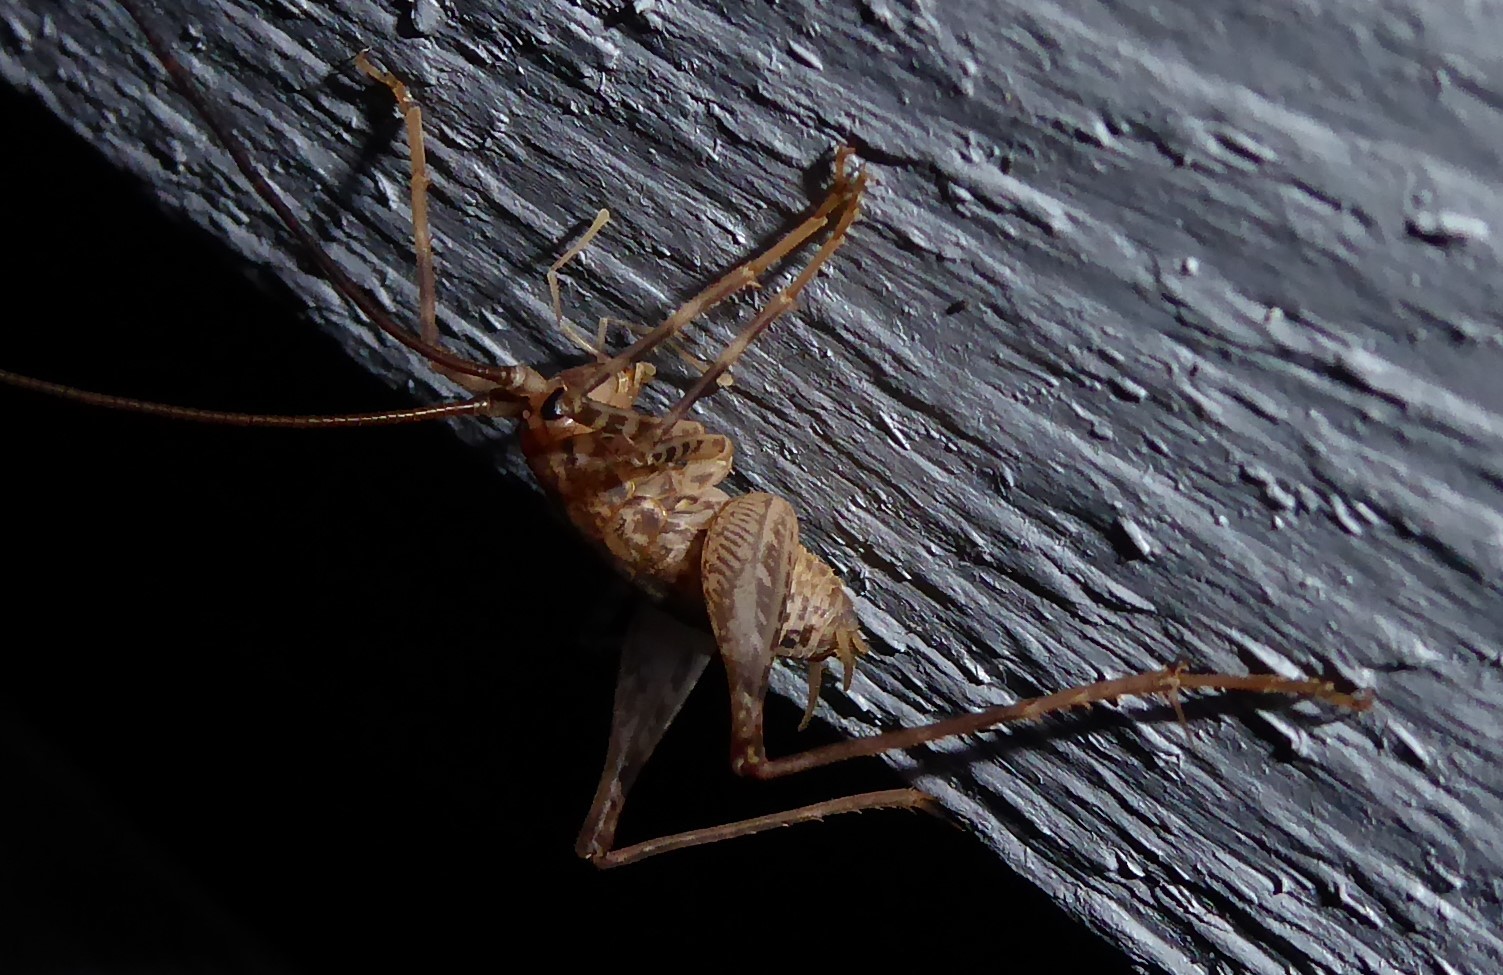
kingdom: Animalia
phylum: Arthropoda
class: Insecta
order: Orthoptera
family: Rhaphidophoridae
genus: Pleioplectron
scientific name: Pleioplectron simplex
